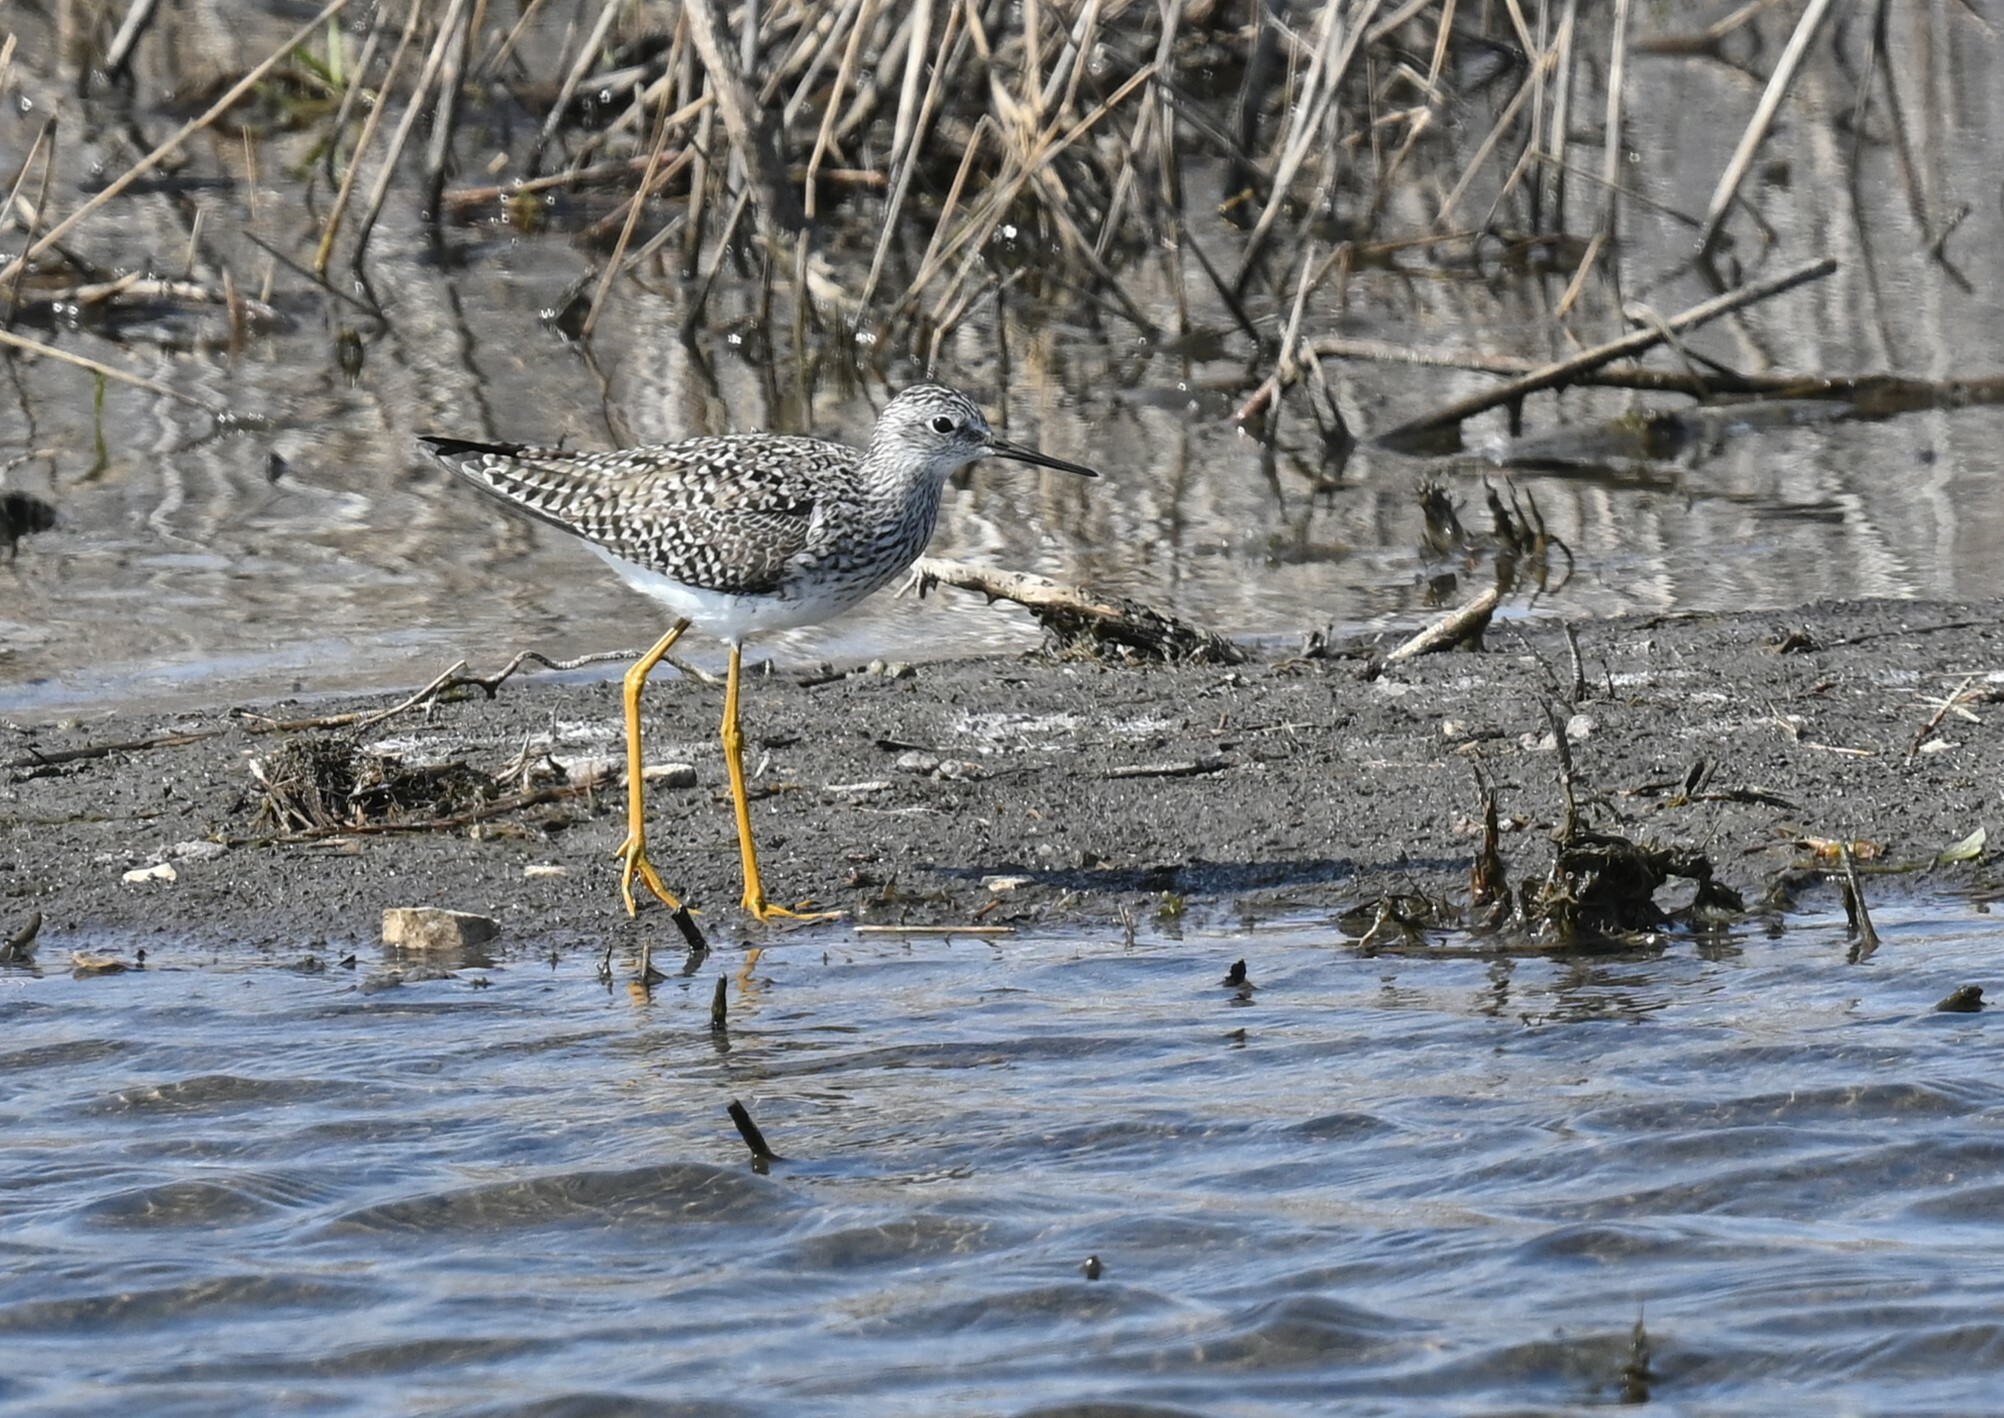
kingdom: Animalia
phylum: Chordata
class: Aves
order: Charadriiformes
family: Scolopacidae
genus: Tringa
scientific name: Tringa flavipes
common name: Lesser yellowlegs
